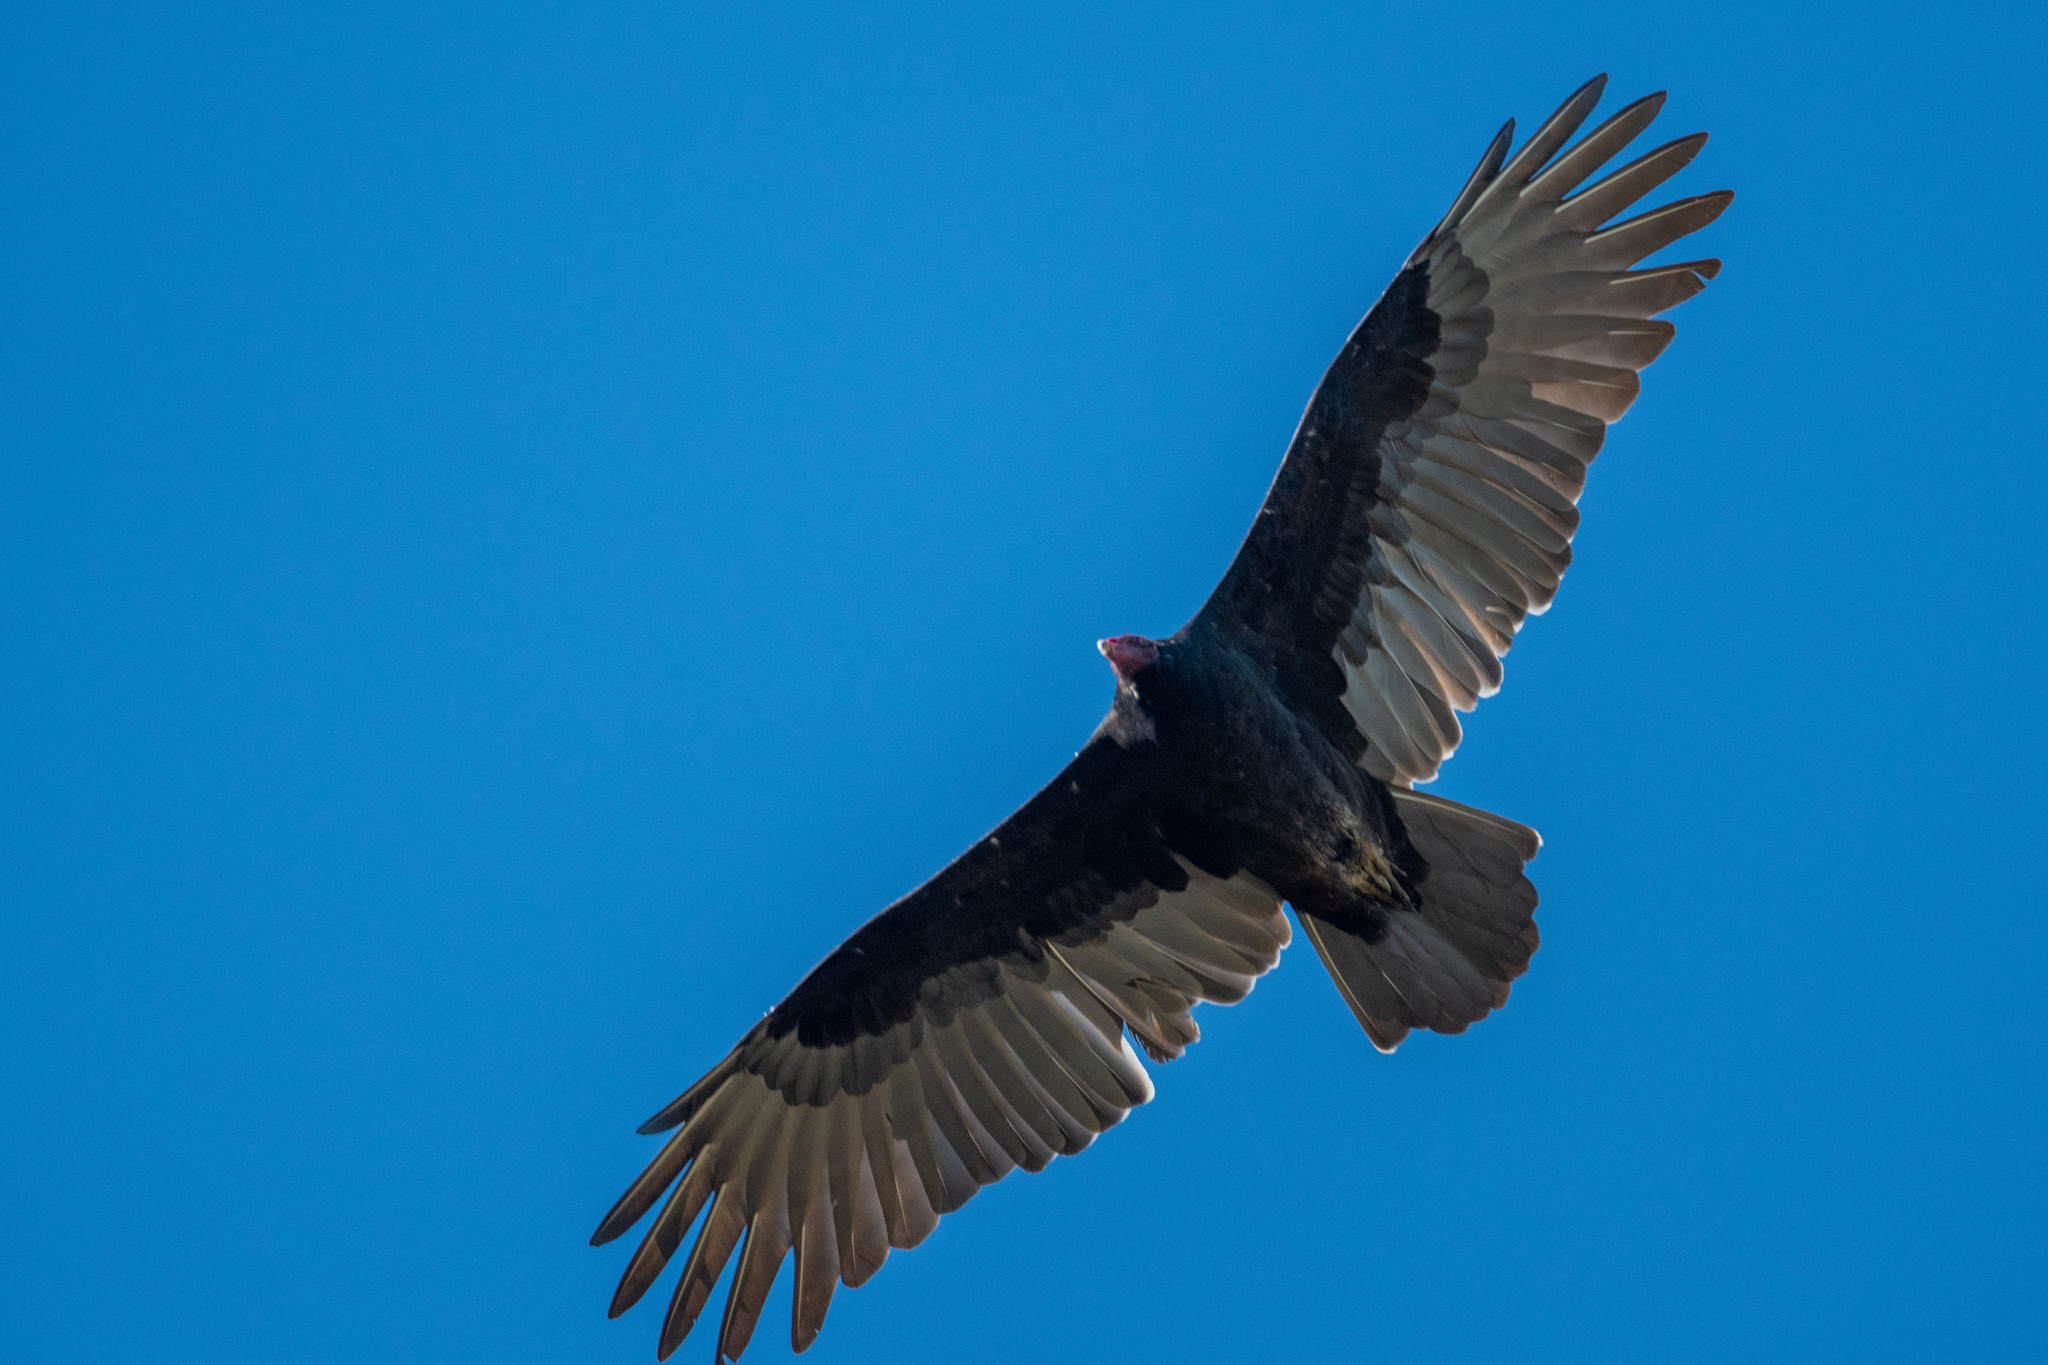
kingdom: Animalia
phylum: Chordata
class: Aves
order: Accipitriformes
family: Cathartidae
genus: Cathartes
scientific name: Cathartes aura
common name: Turkey vulture
